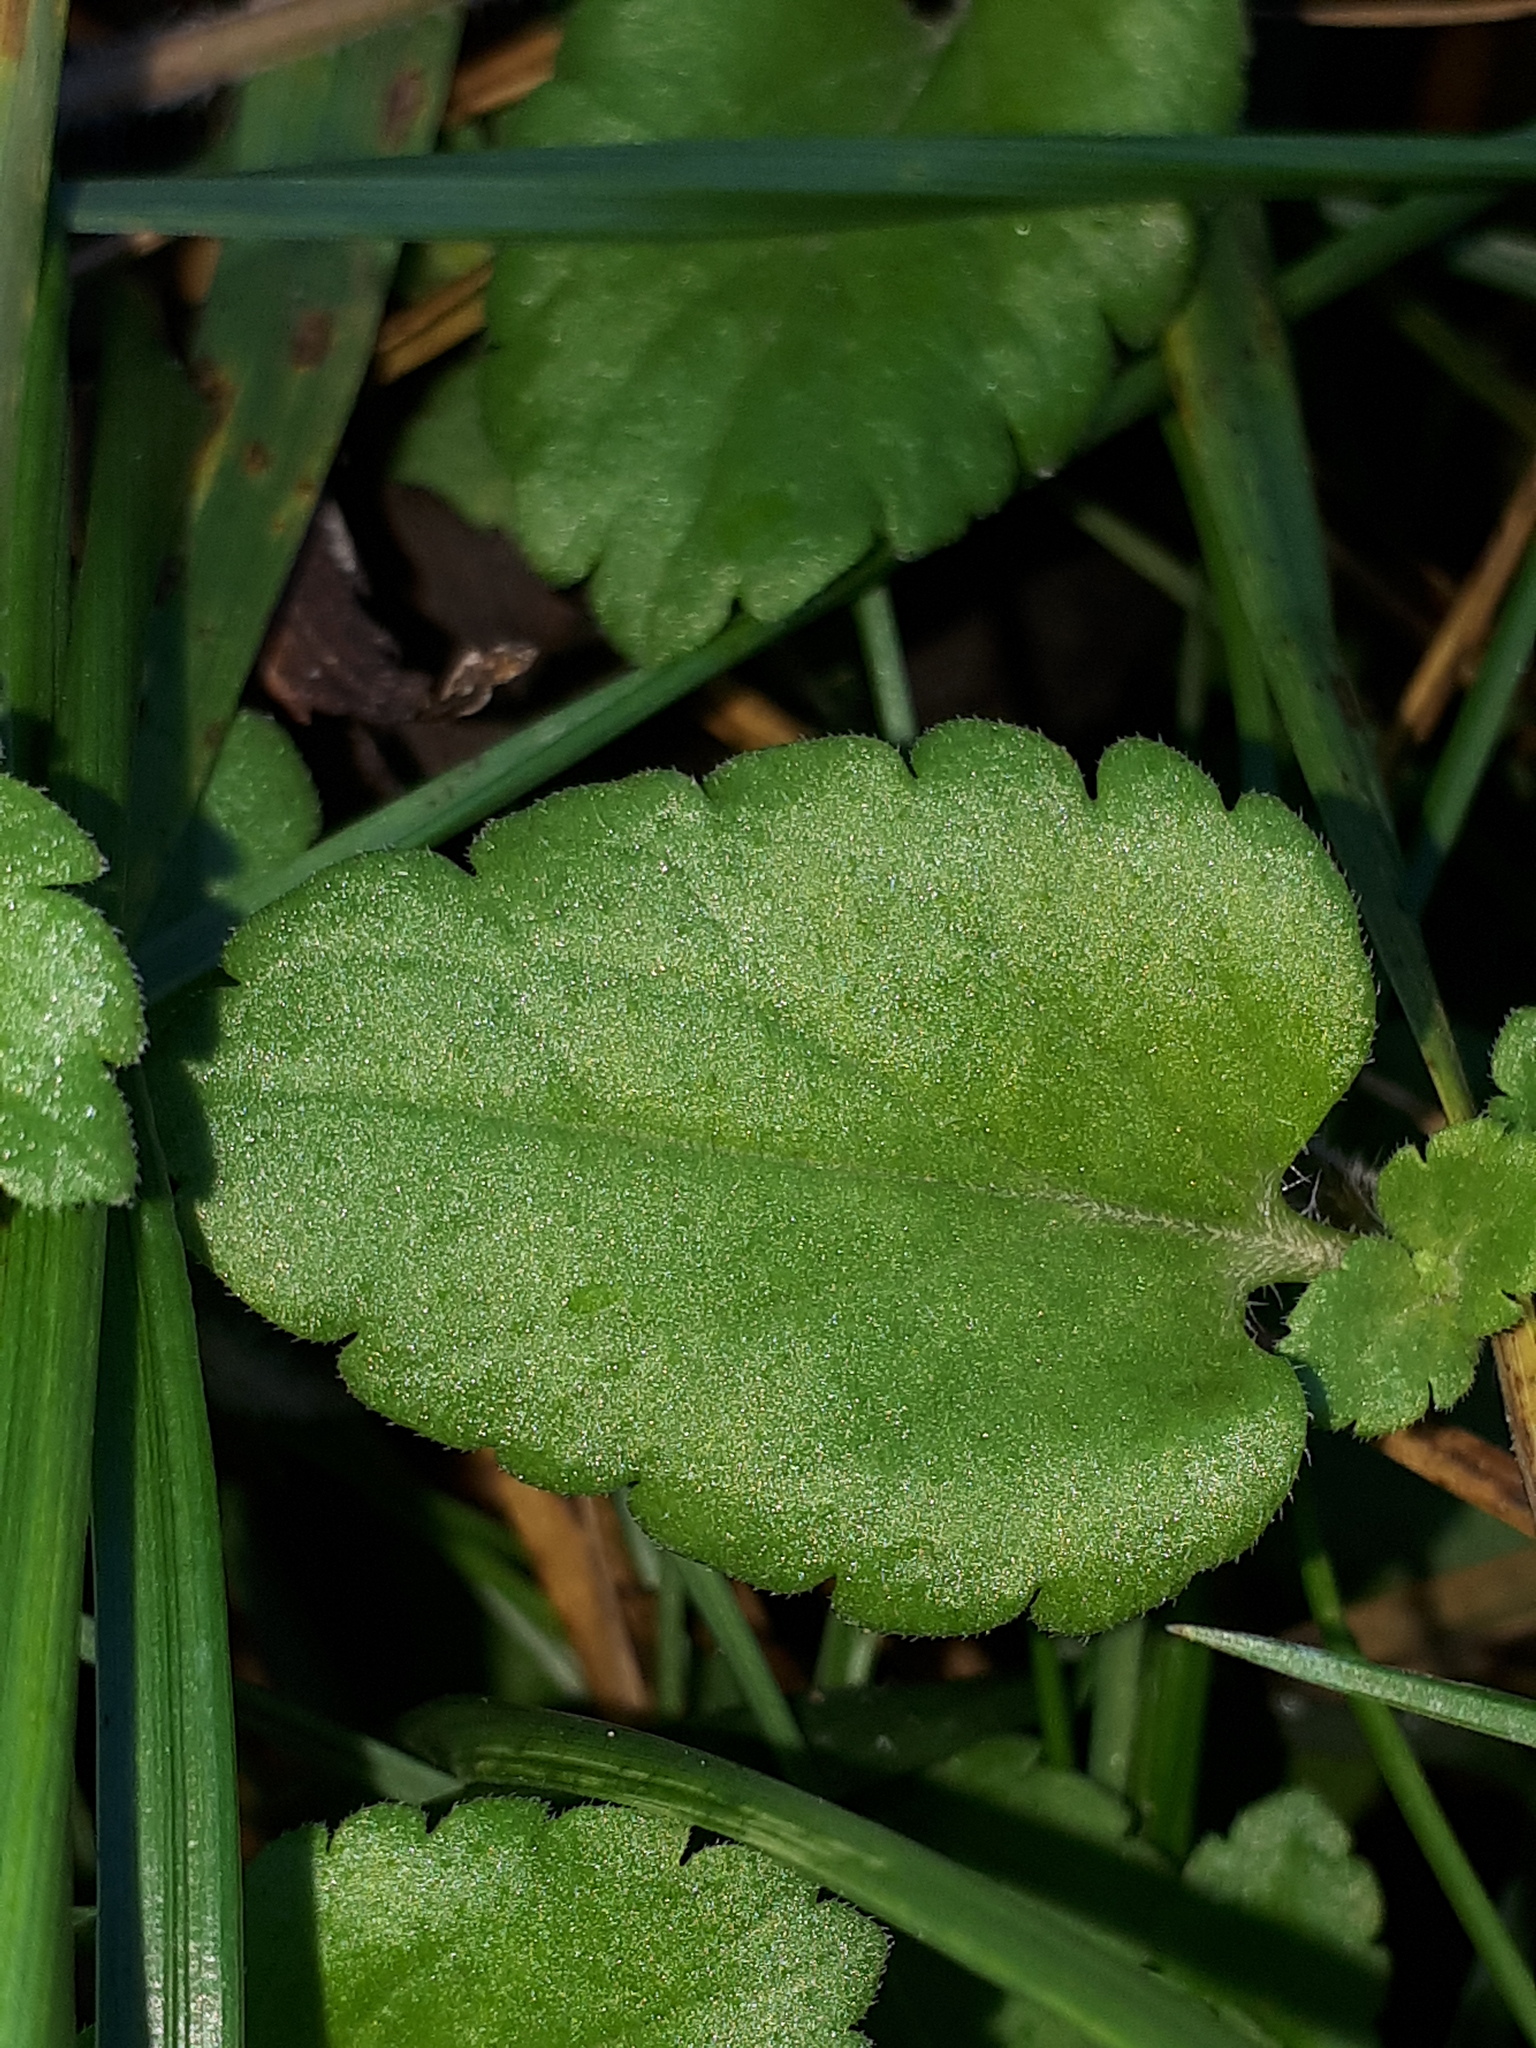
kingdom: Plantae
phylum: Tracheophyta
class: Magnoliopsida
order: Lamiales
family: Plantaginaceae
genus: Veronica
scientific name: Veronica persica
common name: Common field-speedwell
